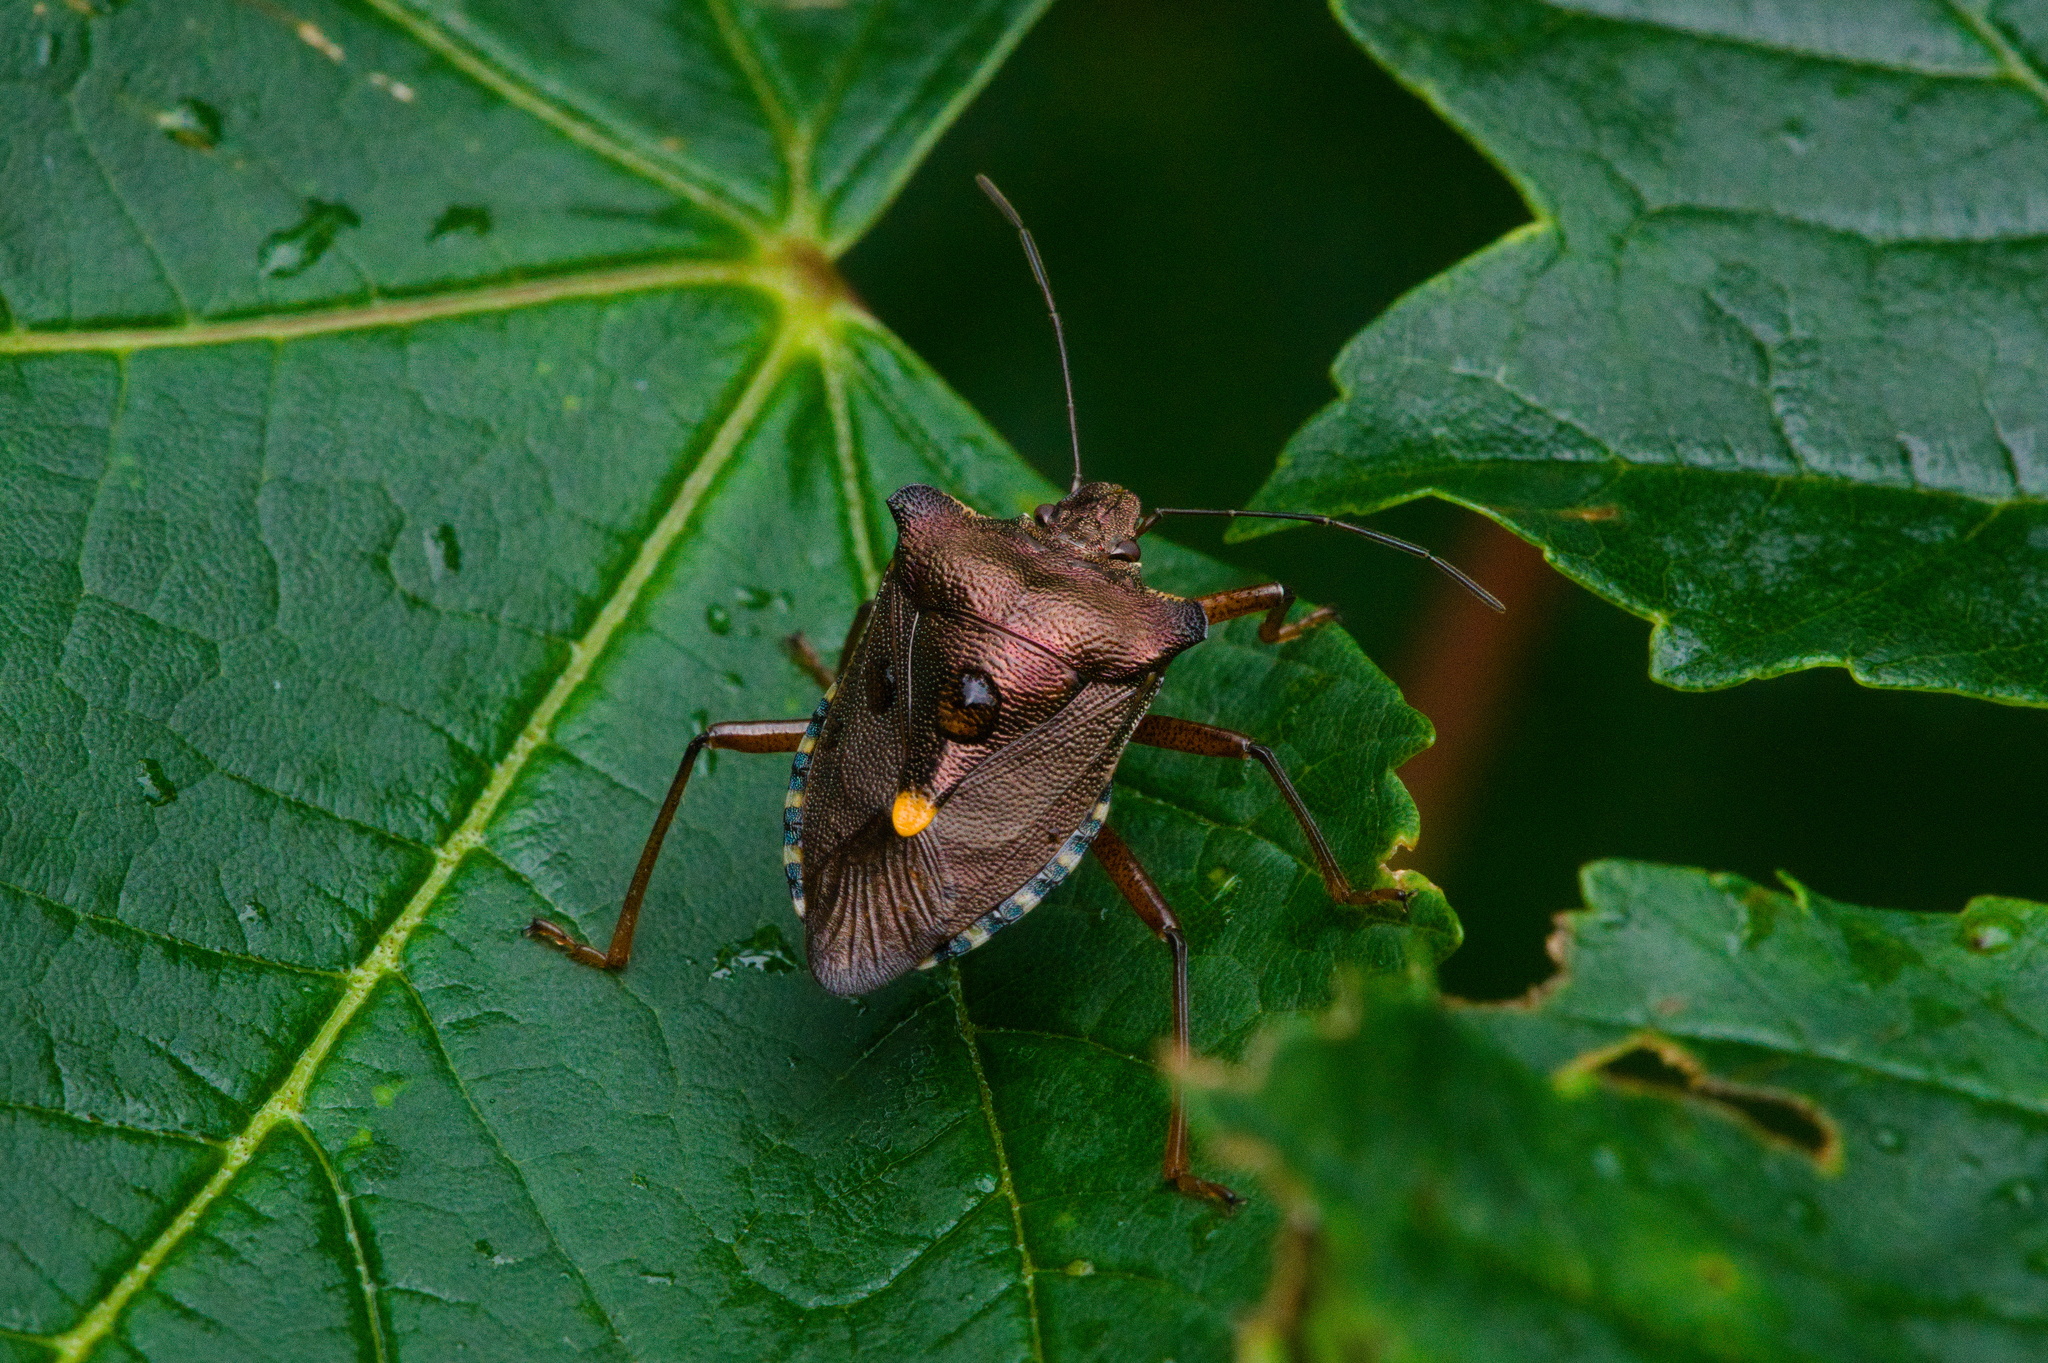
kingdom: Animalia
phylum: Arthropoda
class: Insecta
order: Hemiptera
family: Pentatomidae
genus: Pentatoma
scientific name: Pentatoma rufipes
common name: Forest bug
